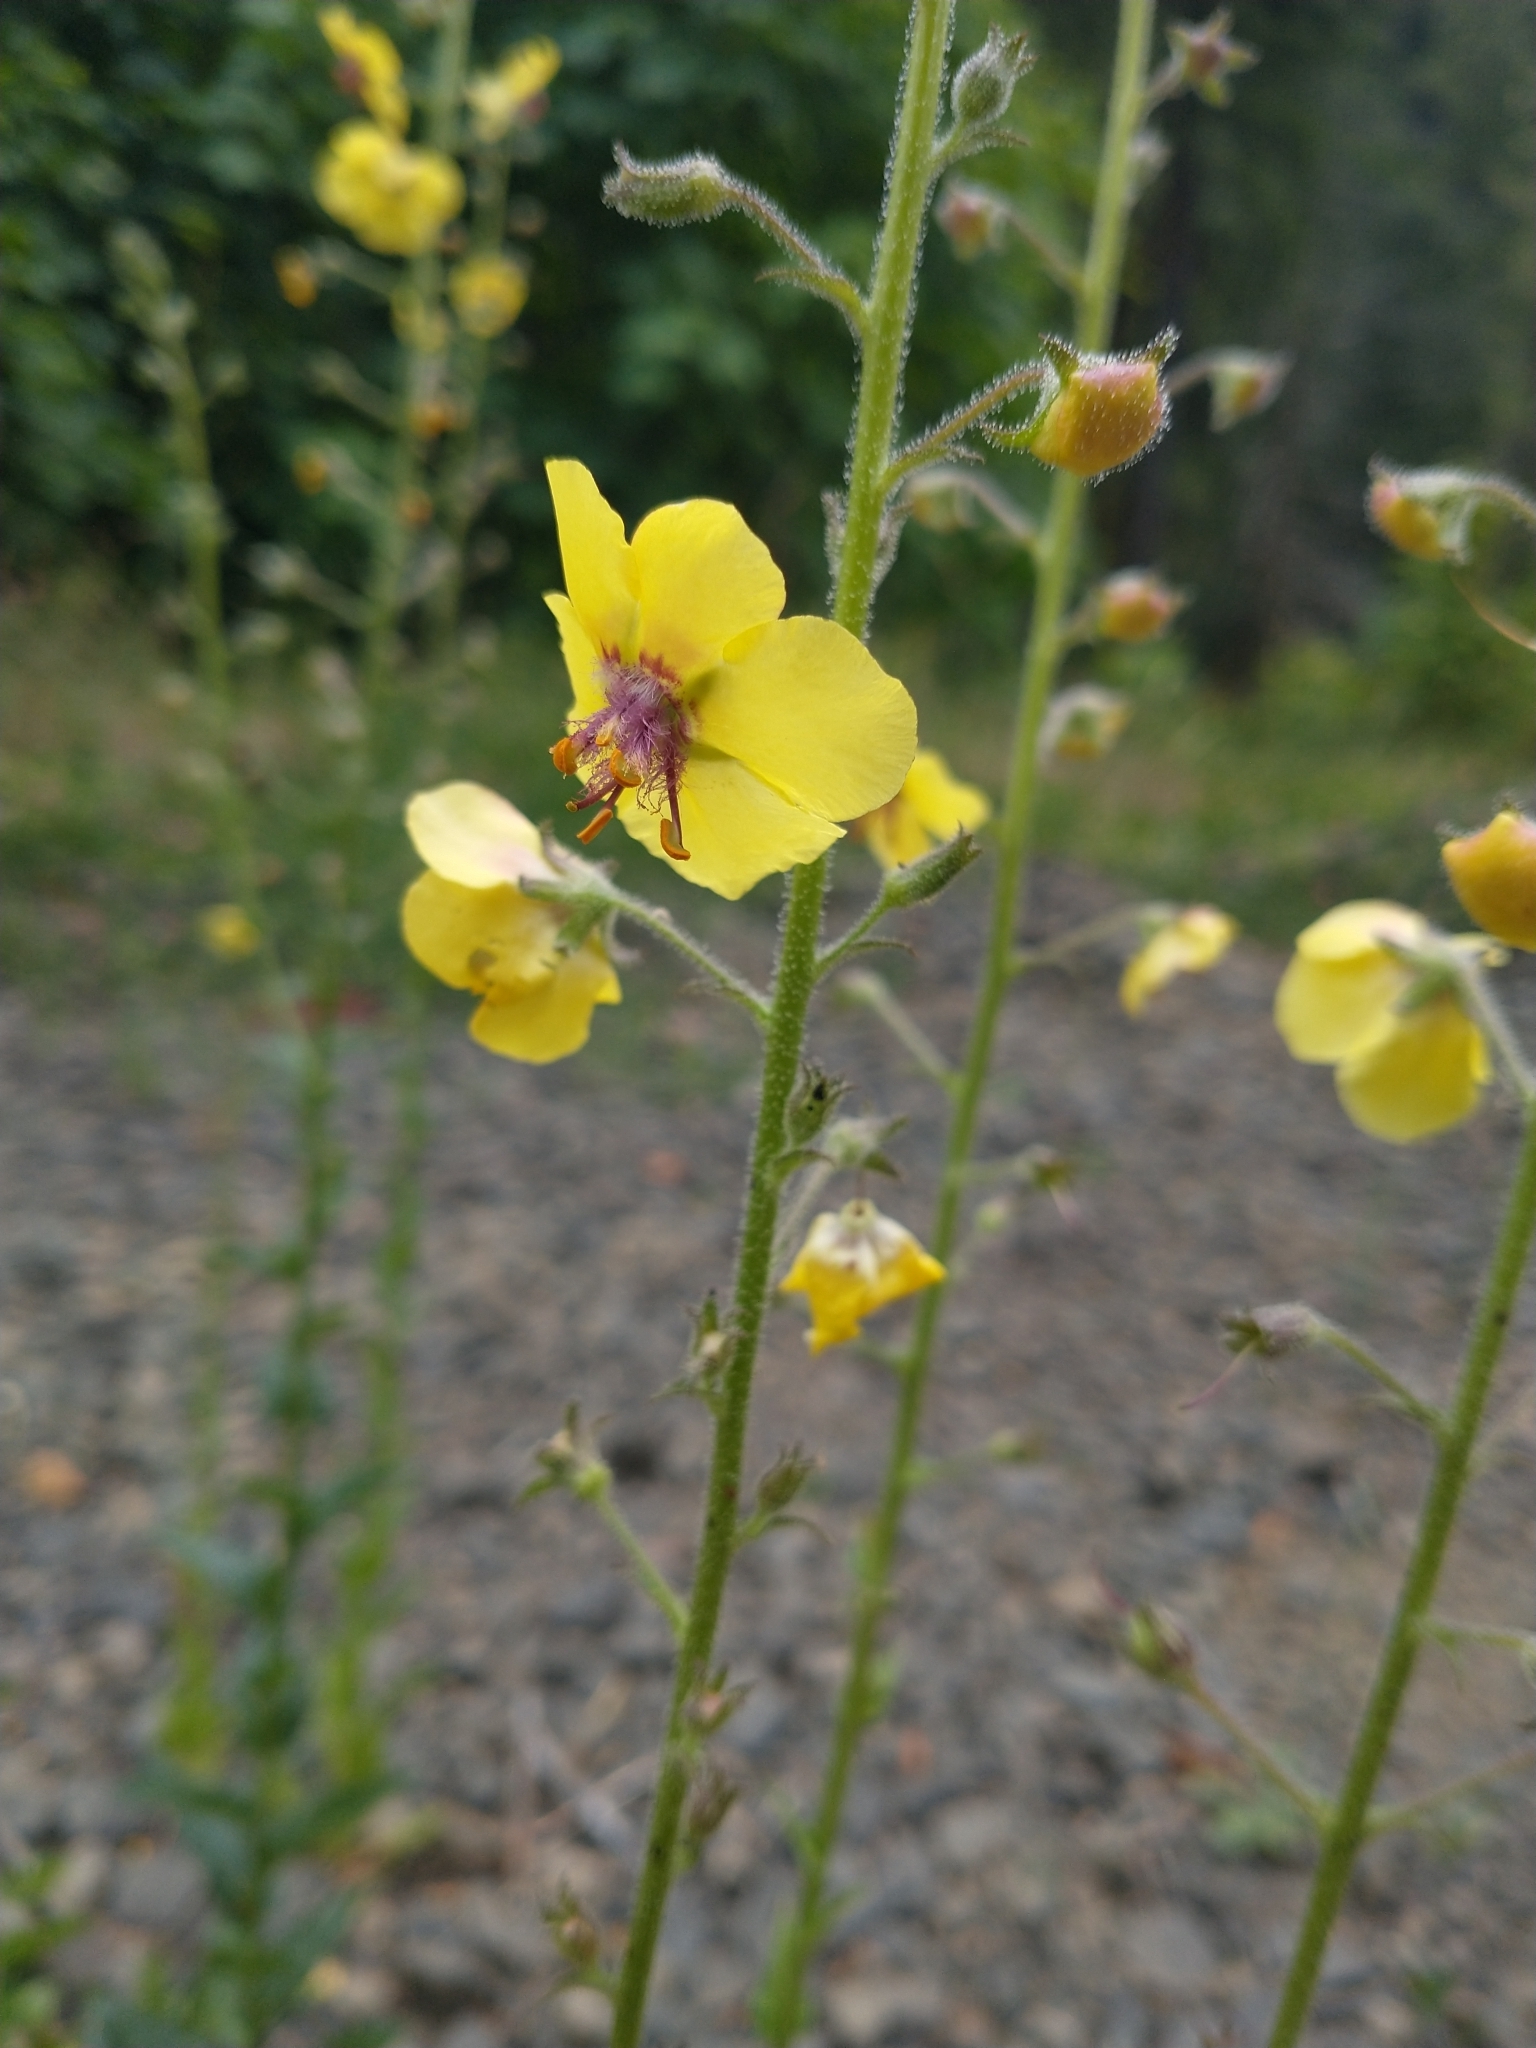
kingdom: Plantae
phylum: Tracheophyta
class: Magnoliopsida
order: Lamiales
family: Scrophulariaceae
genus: Verbascum
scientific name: Verbascum blattaria
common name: Moth mullein
